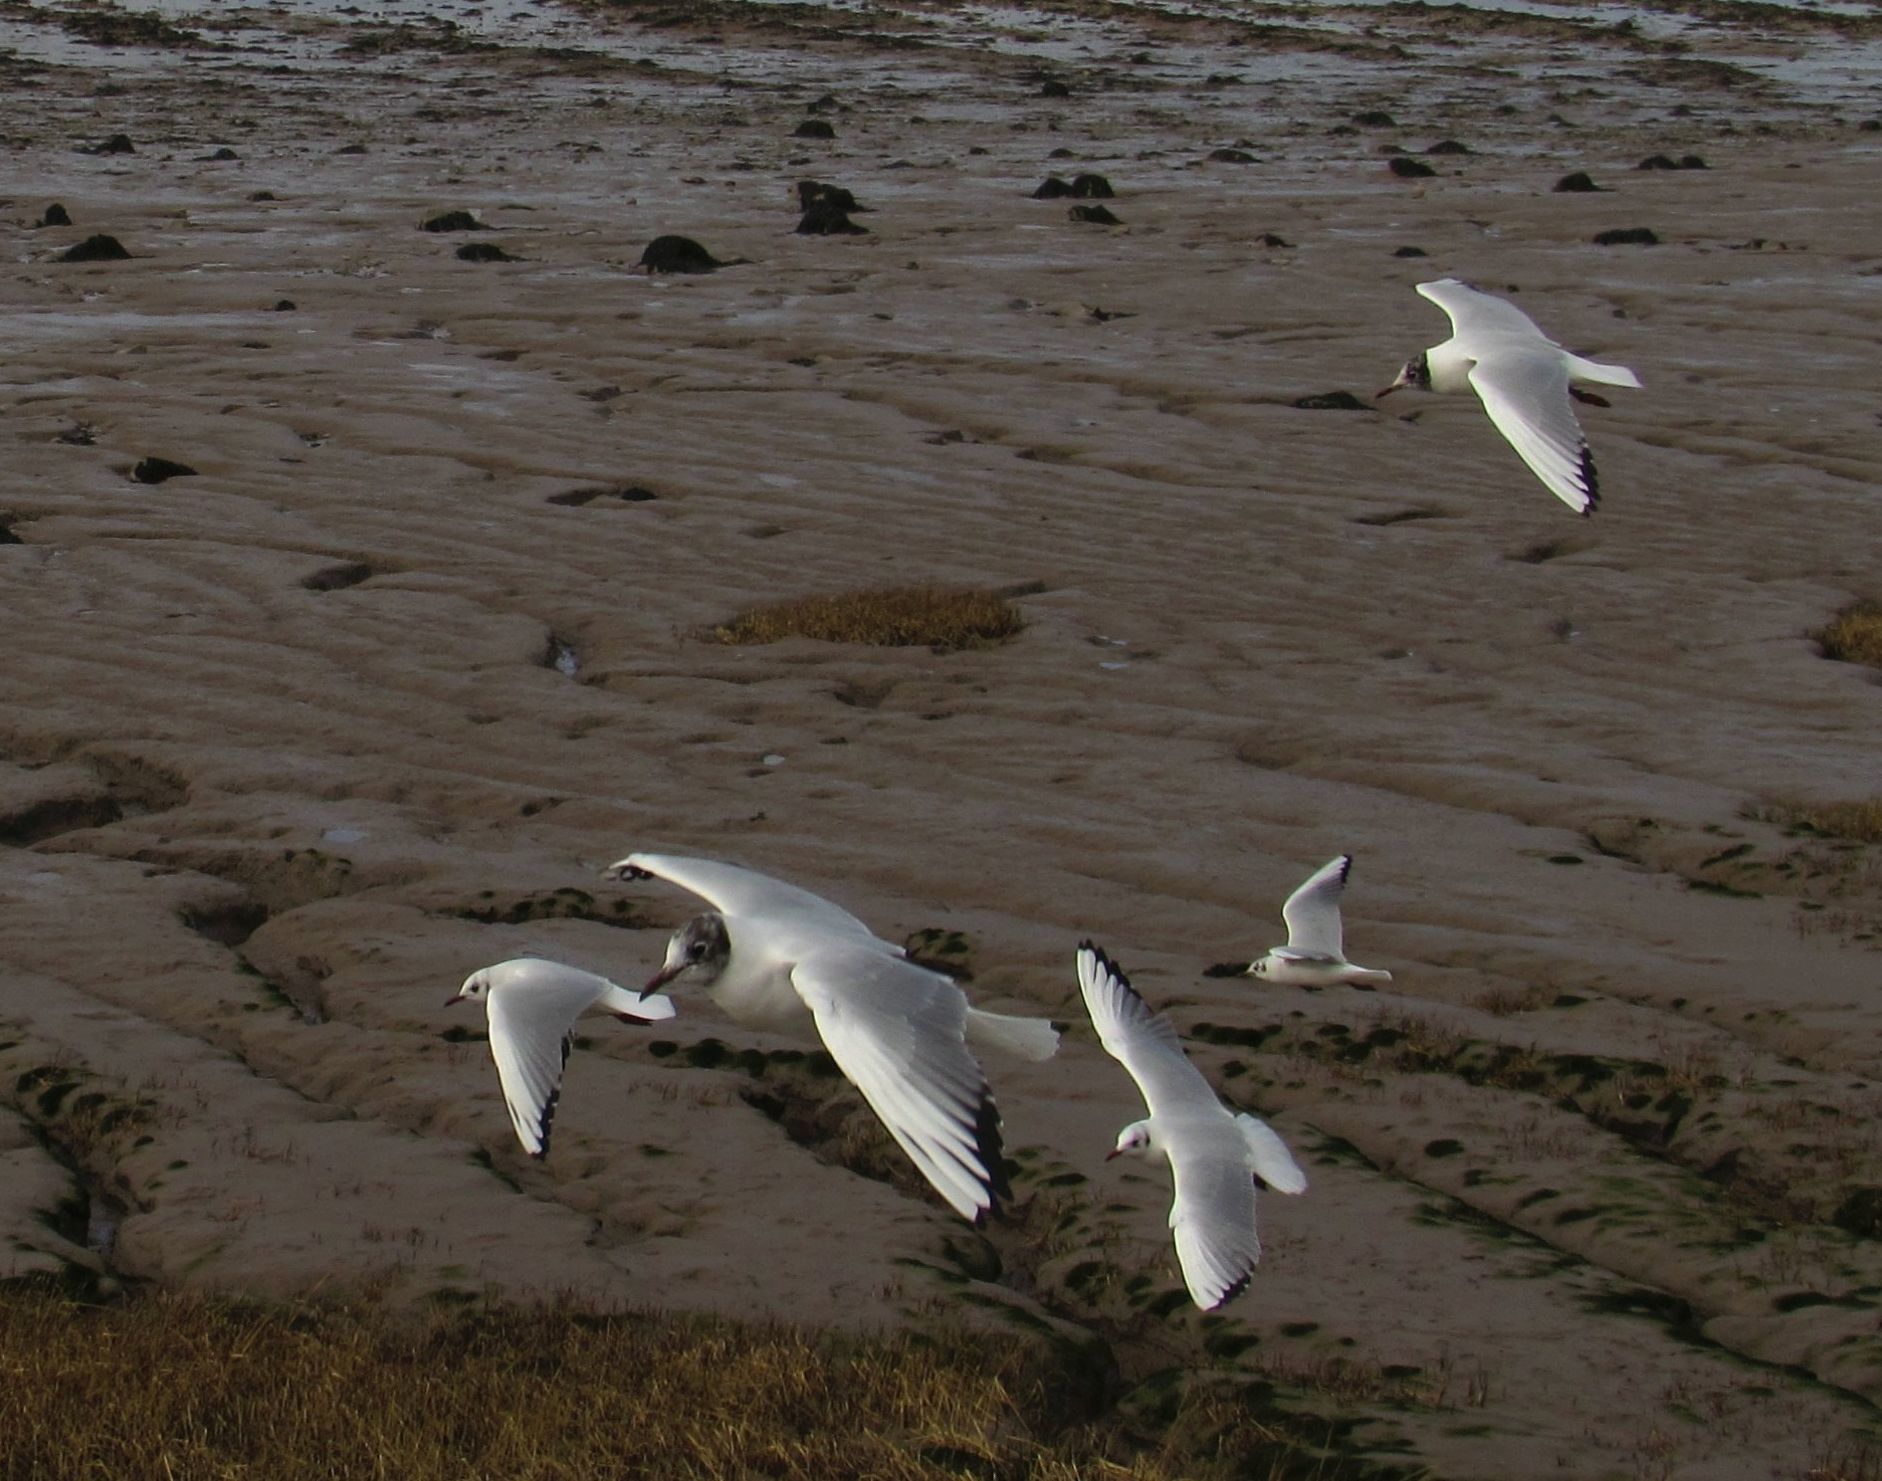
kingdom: Animalia
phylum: Chordata
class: Aves
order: Charadriiformes
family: Laridae
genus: Chroicocephalus
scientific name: Chroicocephalus ridibundus
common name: Black-headed gull
